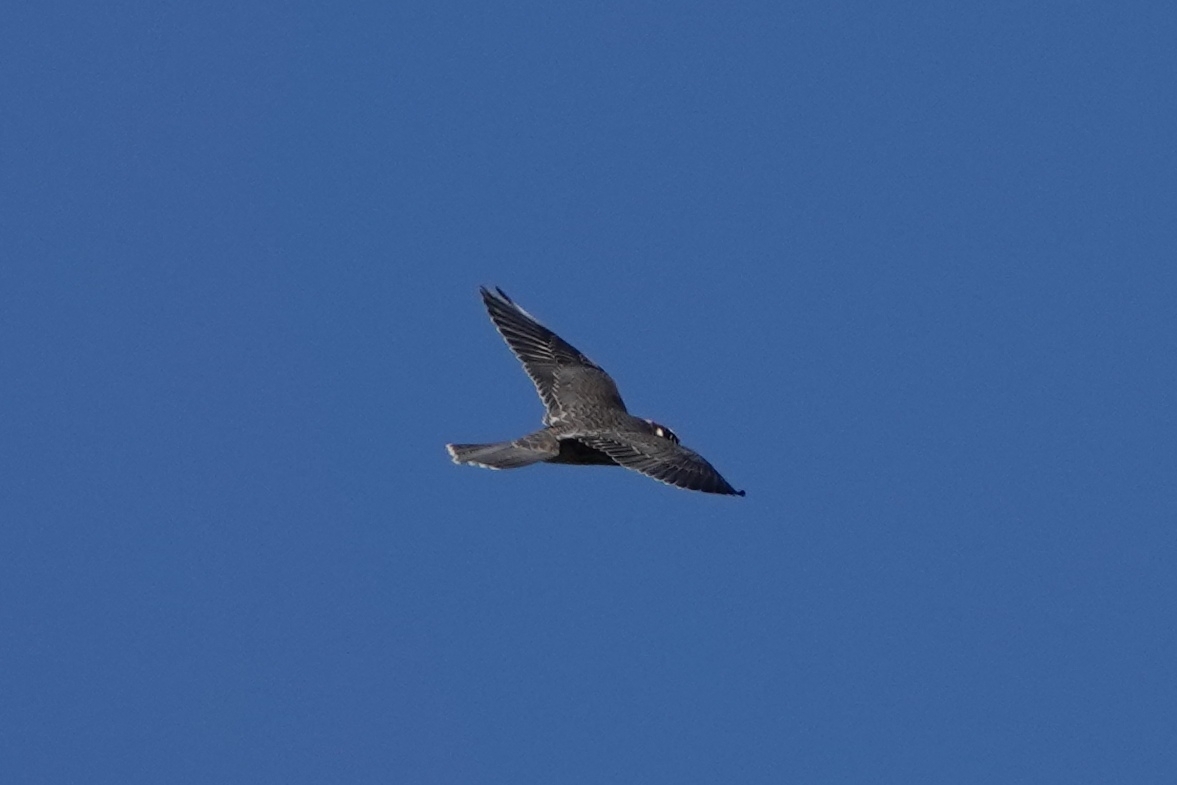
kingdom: Animalia
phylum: Chordata
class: Aves
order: Falconiformes
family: Falconidae
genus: Falco
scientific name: Falco peregrinus
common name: Peregrine falcon
